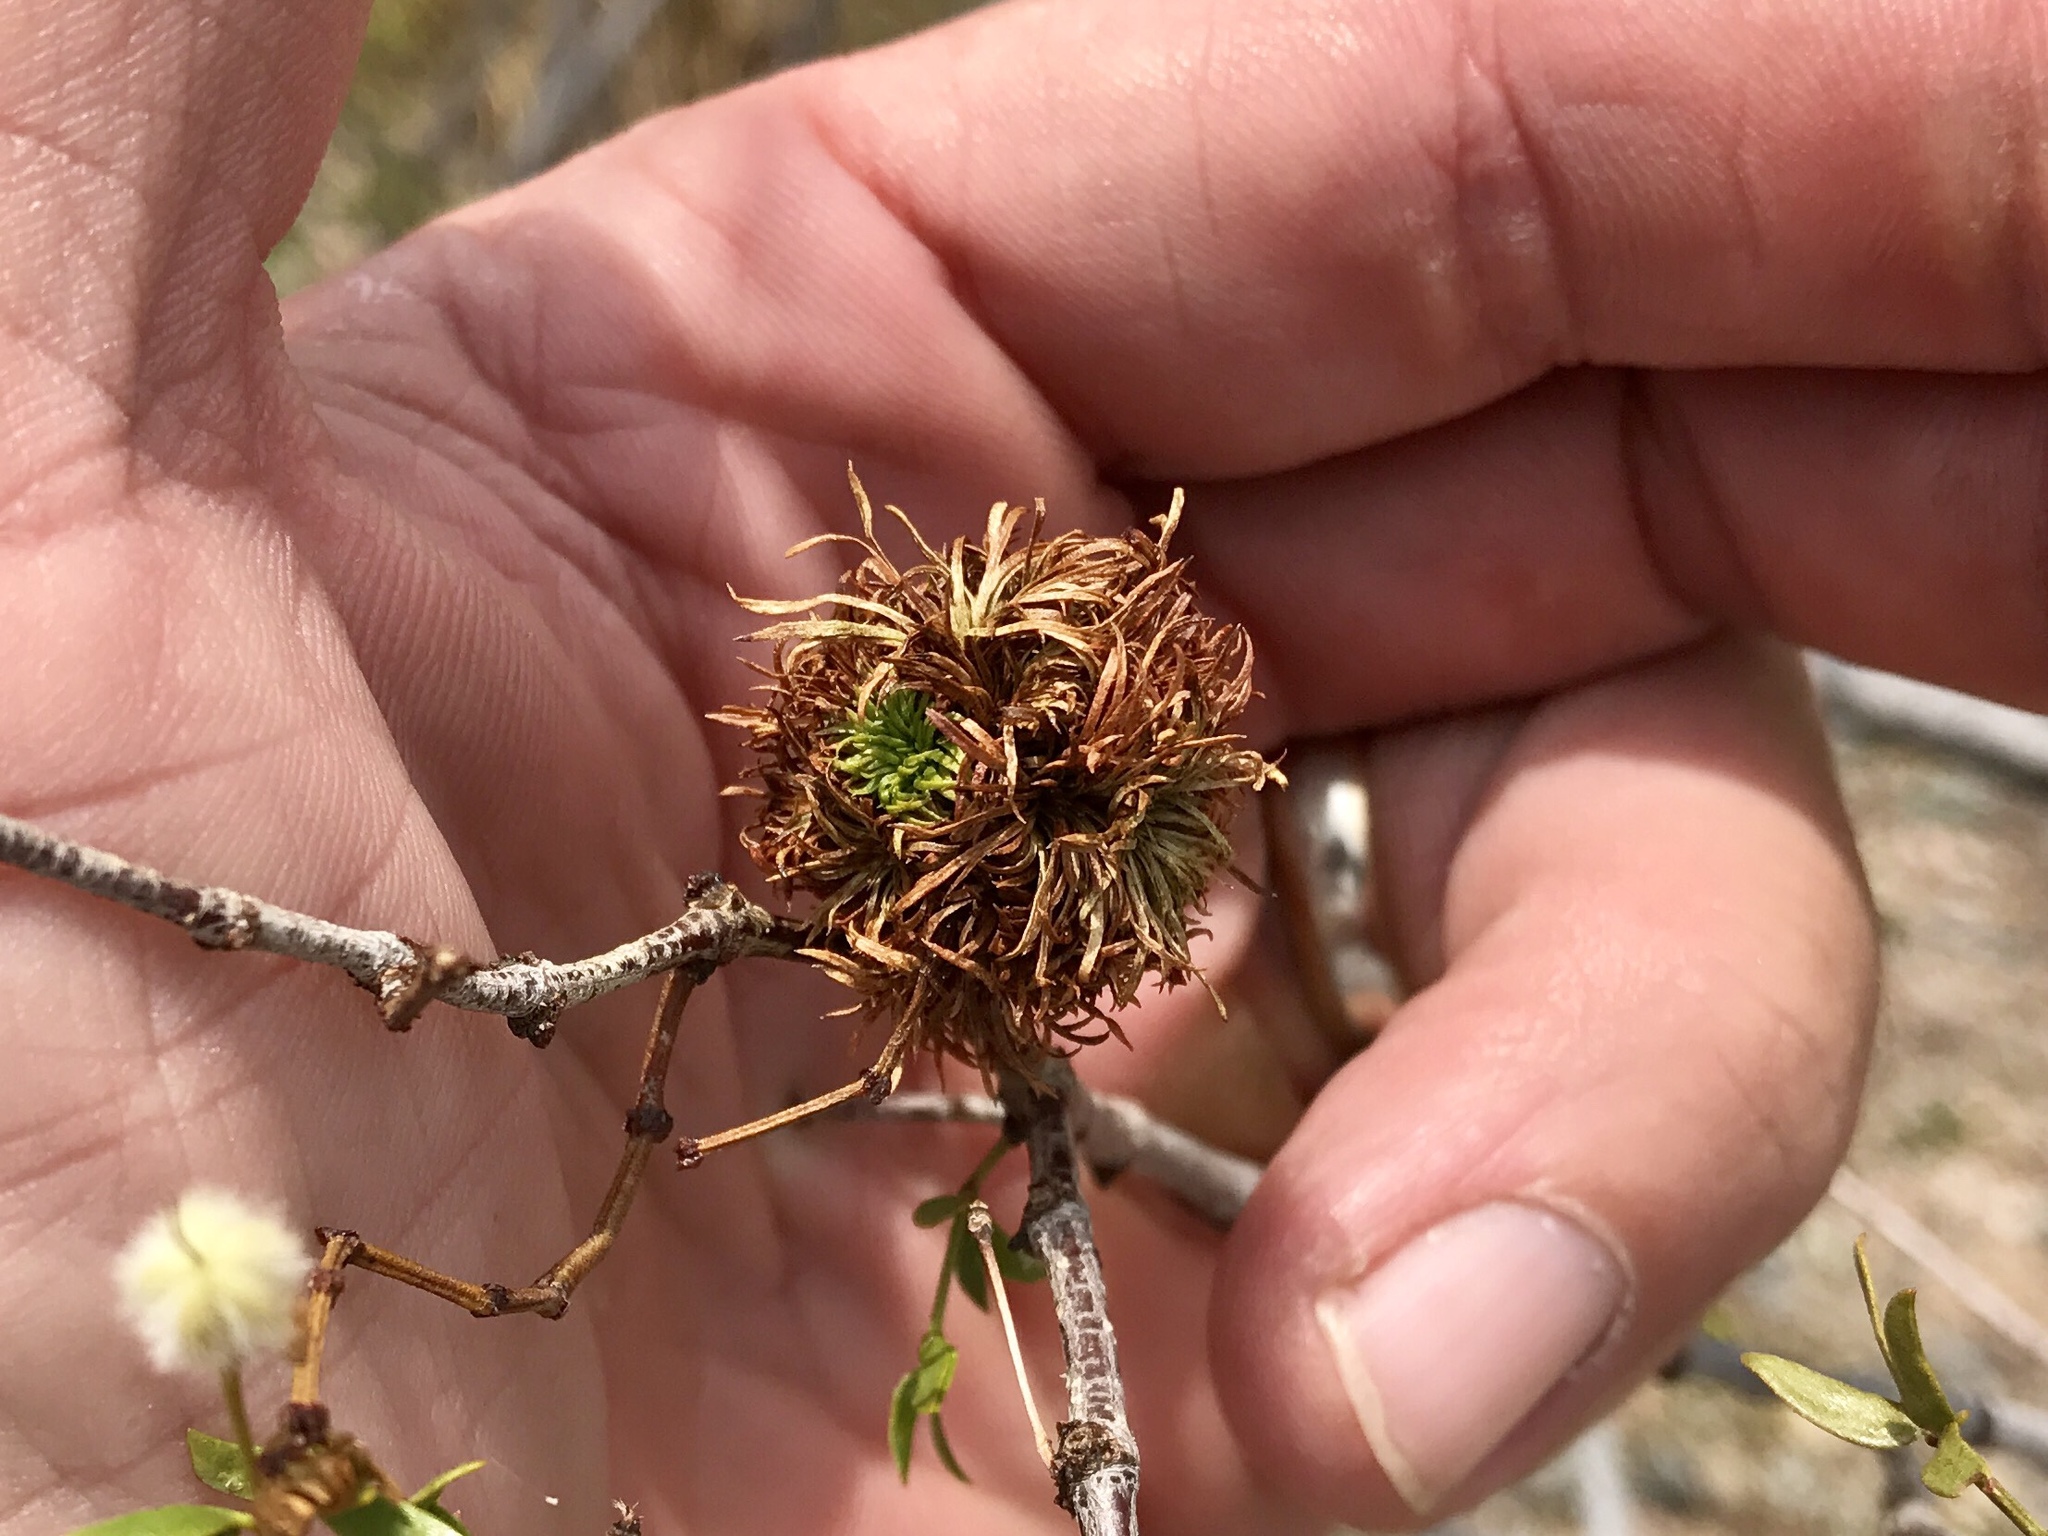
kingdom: Animalia
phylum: Arthropoda
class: Insecta
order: Diptera
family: Cecidomyiidae
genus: Asphondylia
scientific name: Asphondylia auripila
